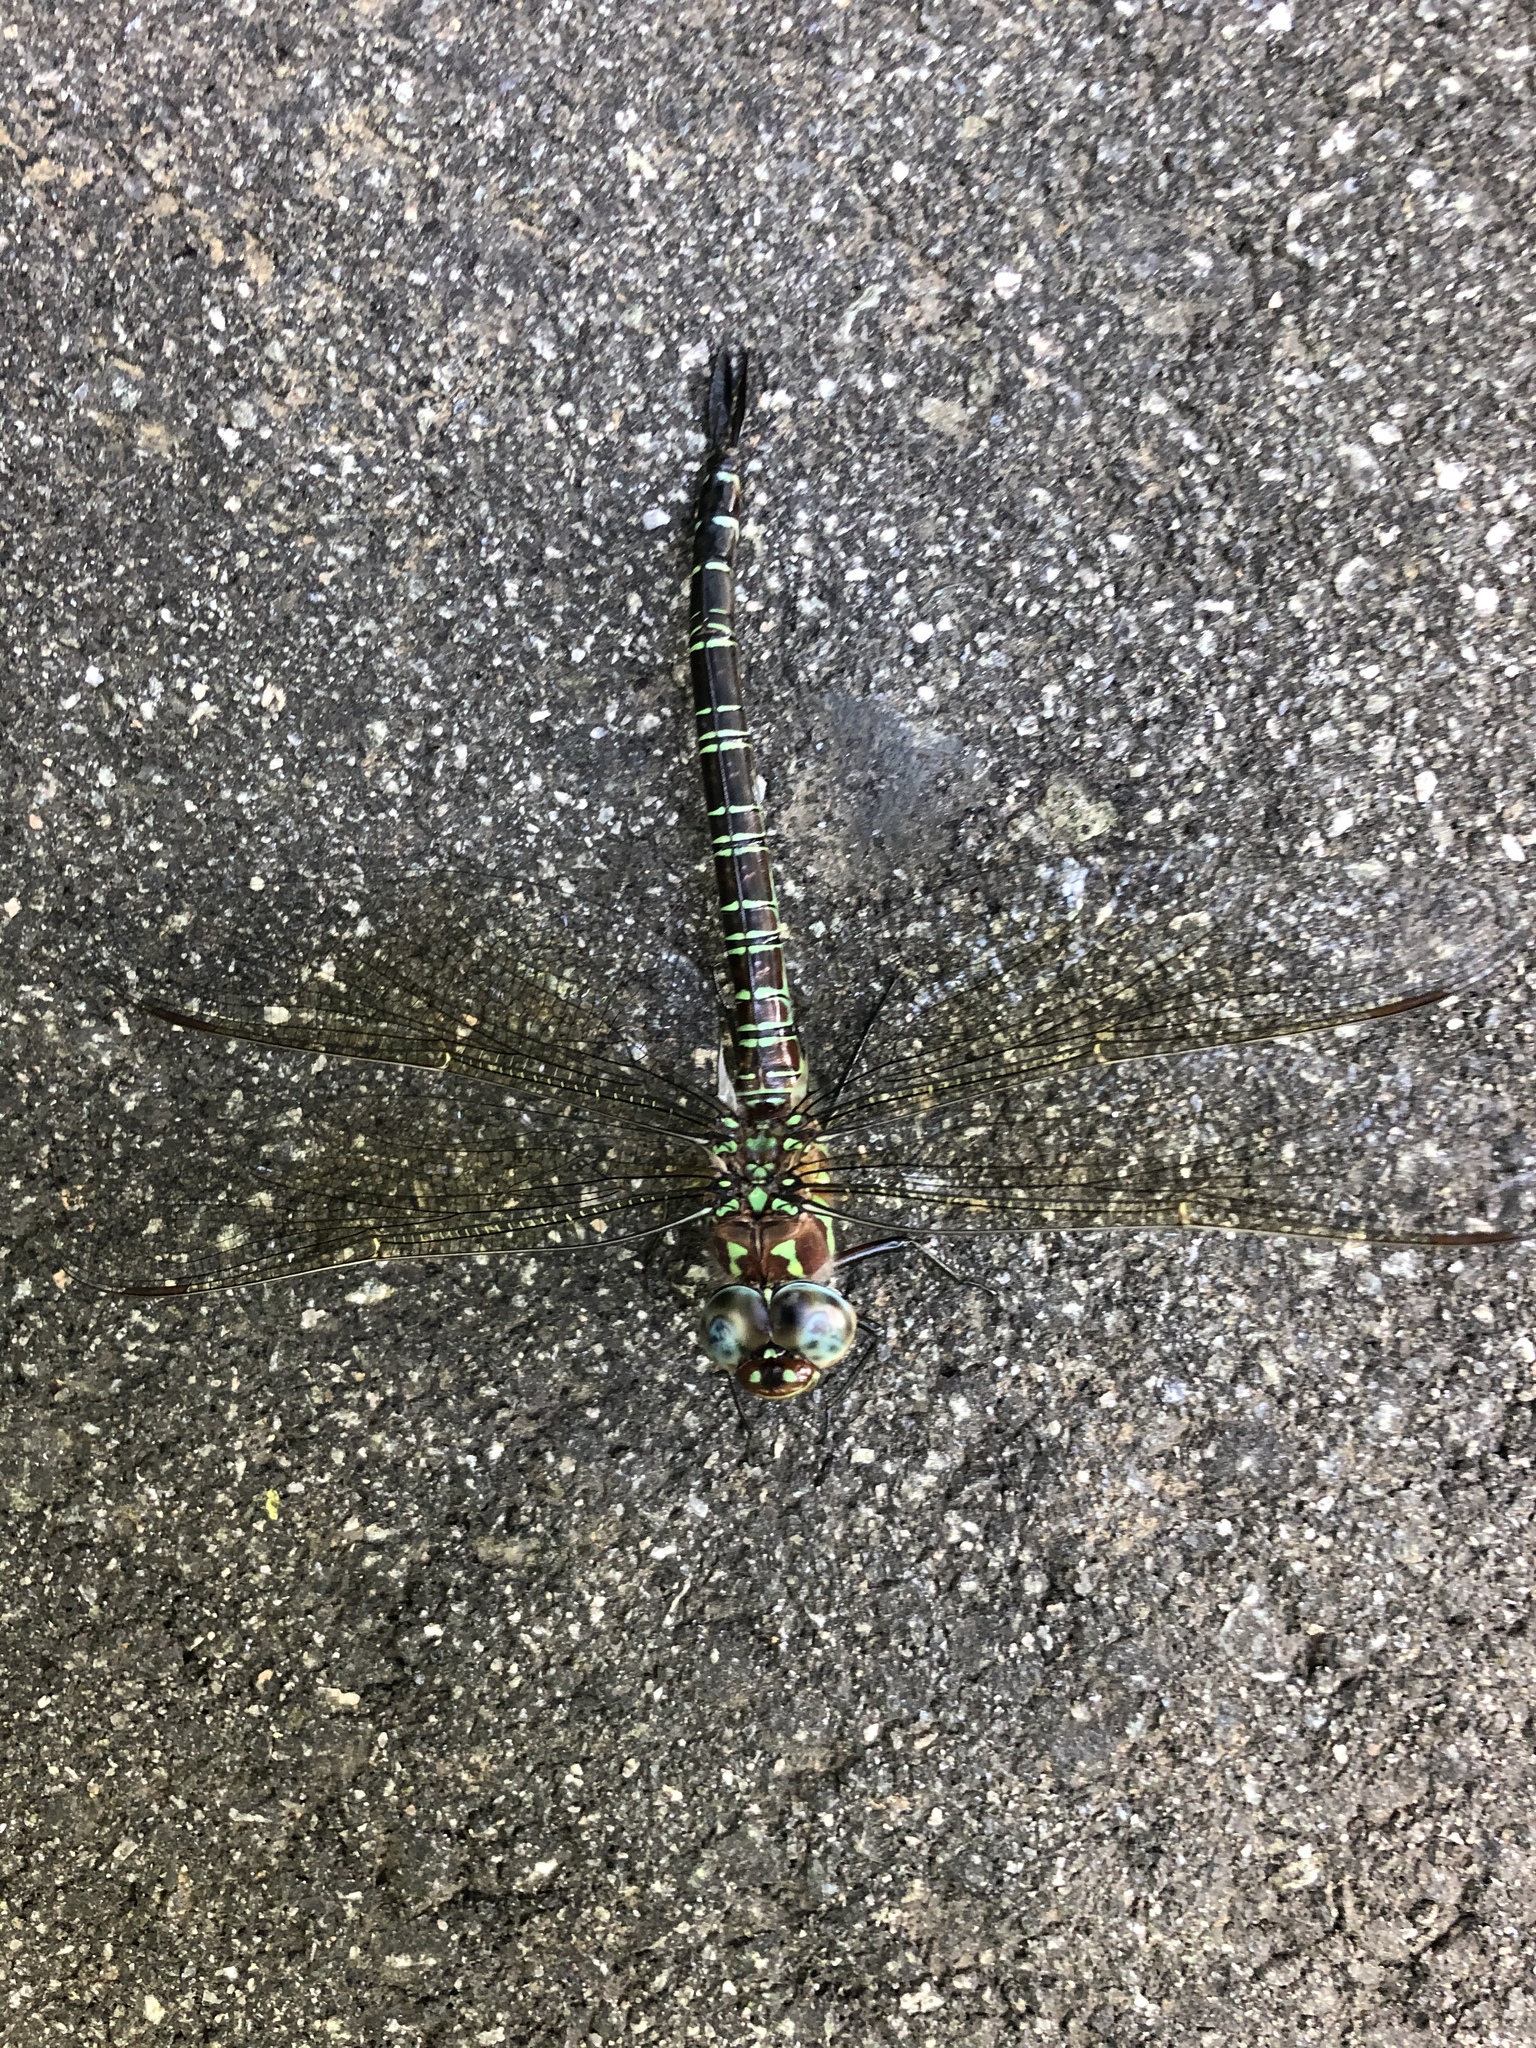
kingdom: Animalia
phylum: Arthropoda
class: Insecta
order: Odonata
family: Aeshnidae
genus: Epiaeschna
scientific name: Epiaeschna heros
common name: Swamp darner
